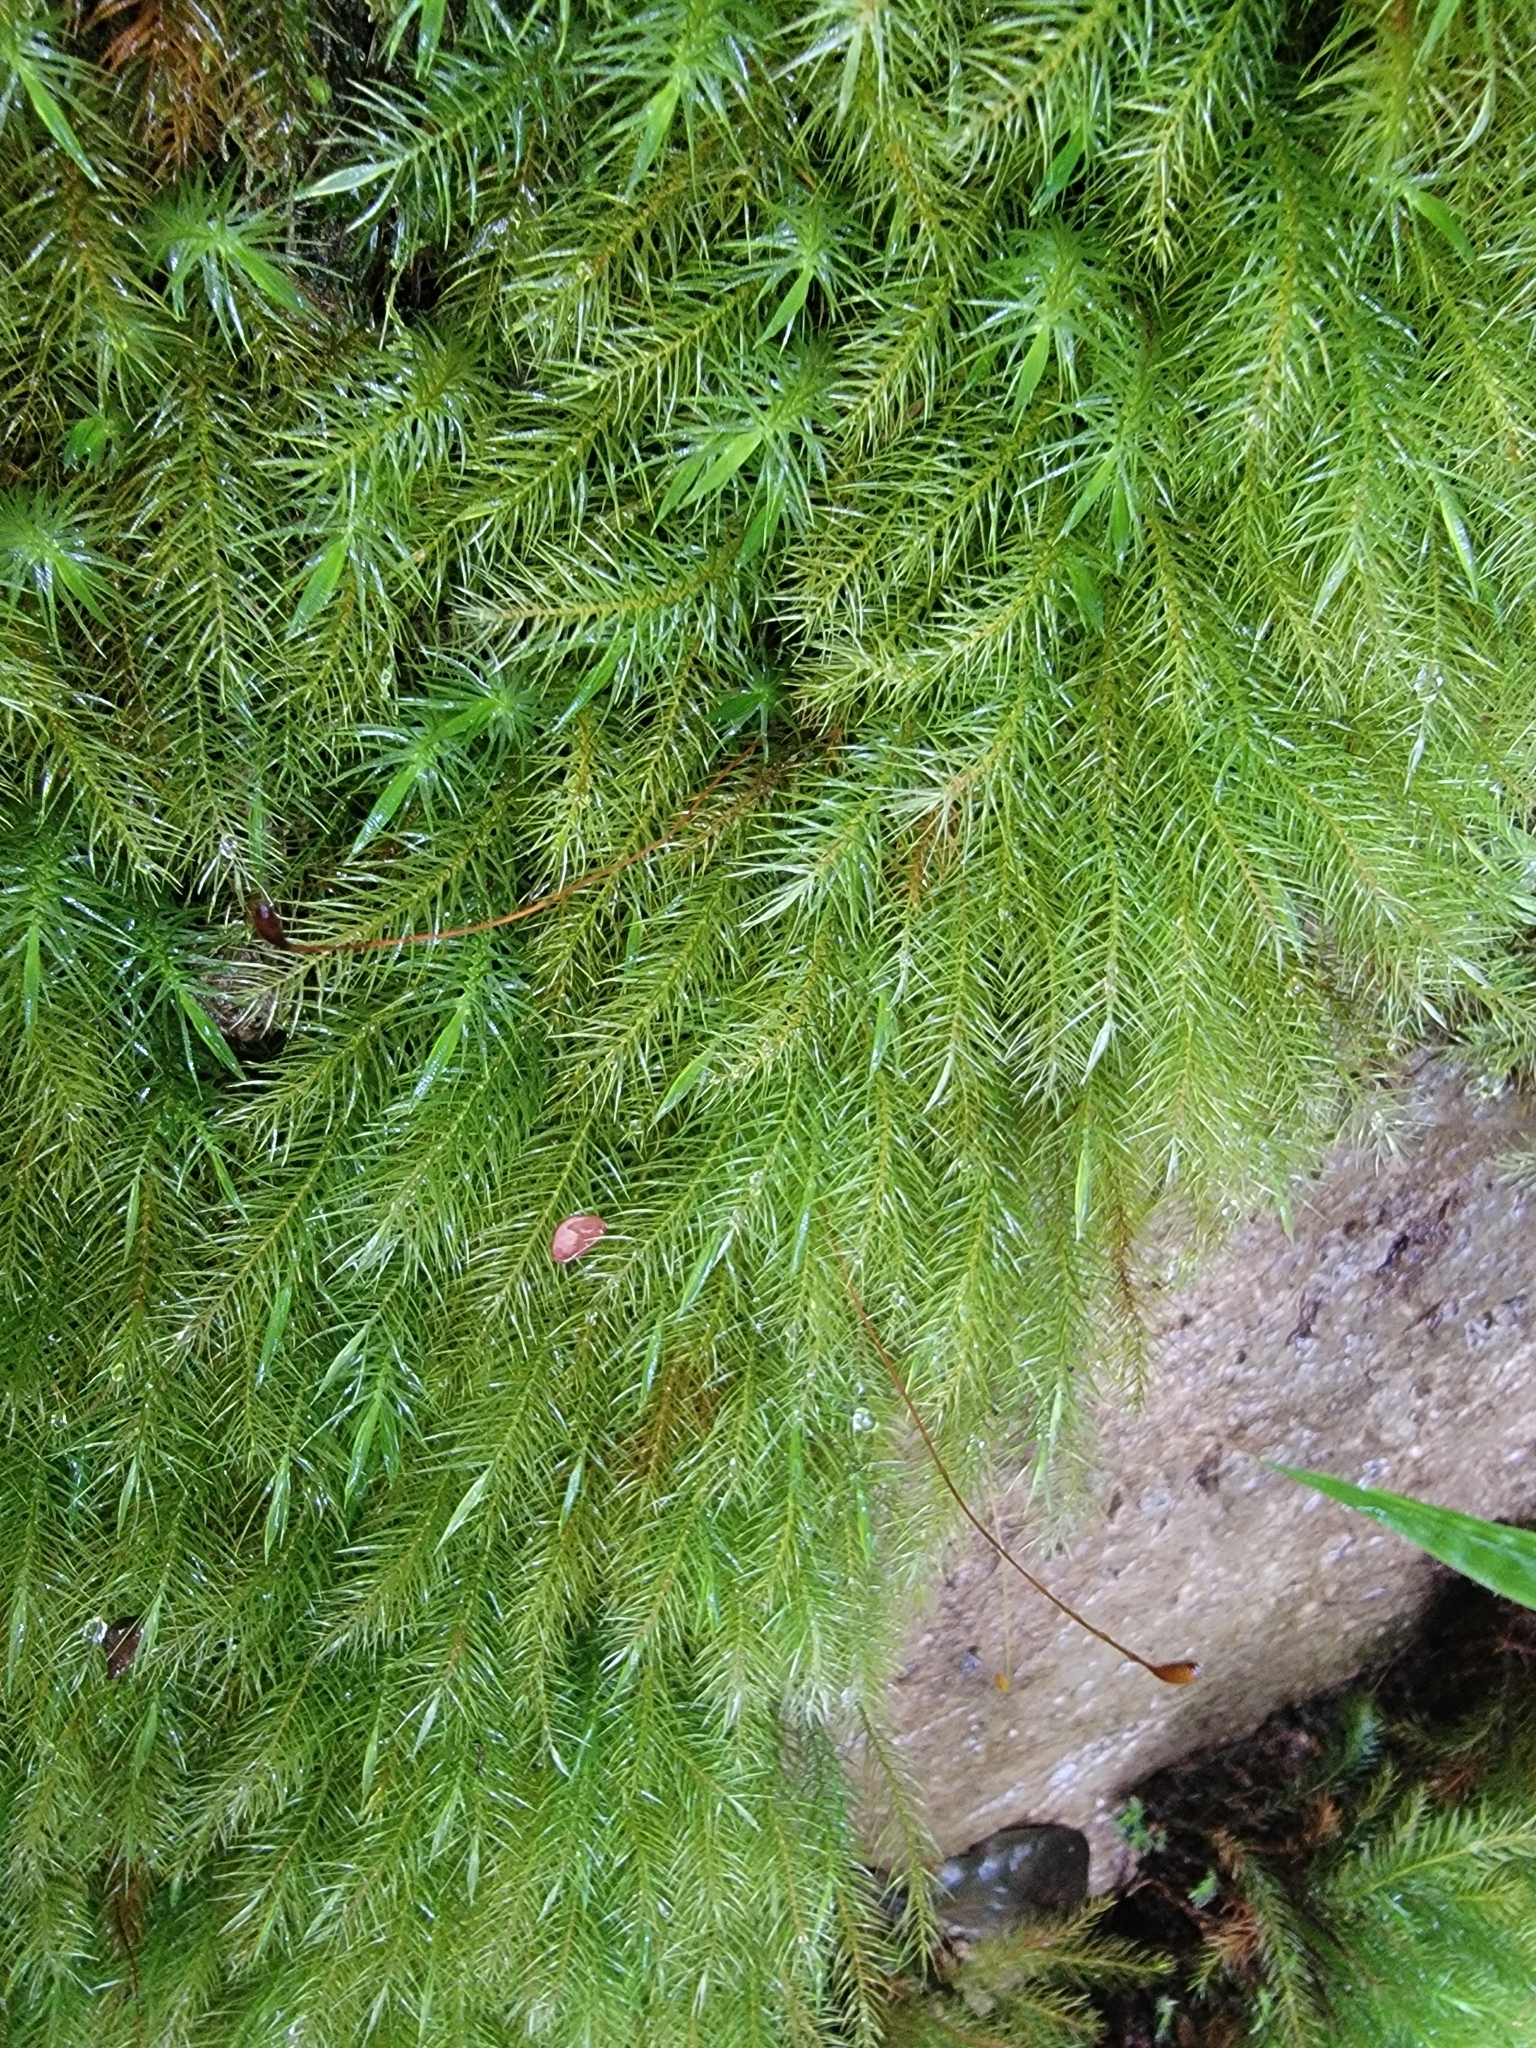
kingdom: Plantae
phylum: Bryophyta
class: Bryopsida
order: Rhizogoniales
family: Calomniaceae
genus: Pyrrhobryum
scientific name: Pyrrhobryum spiniforme
